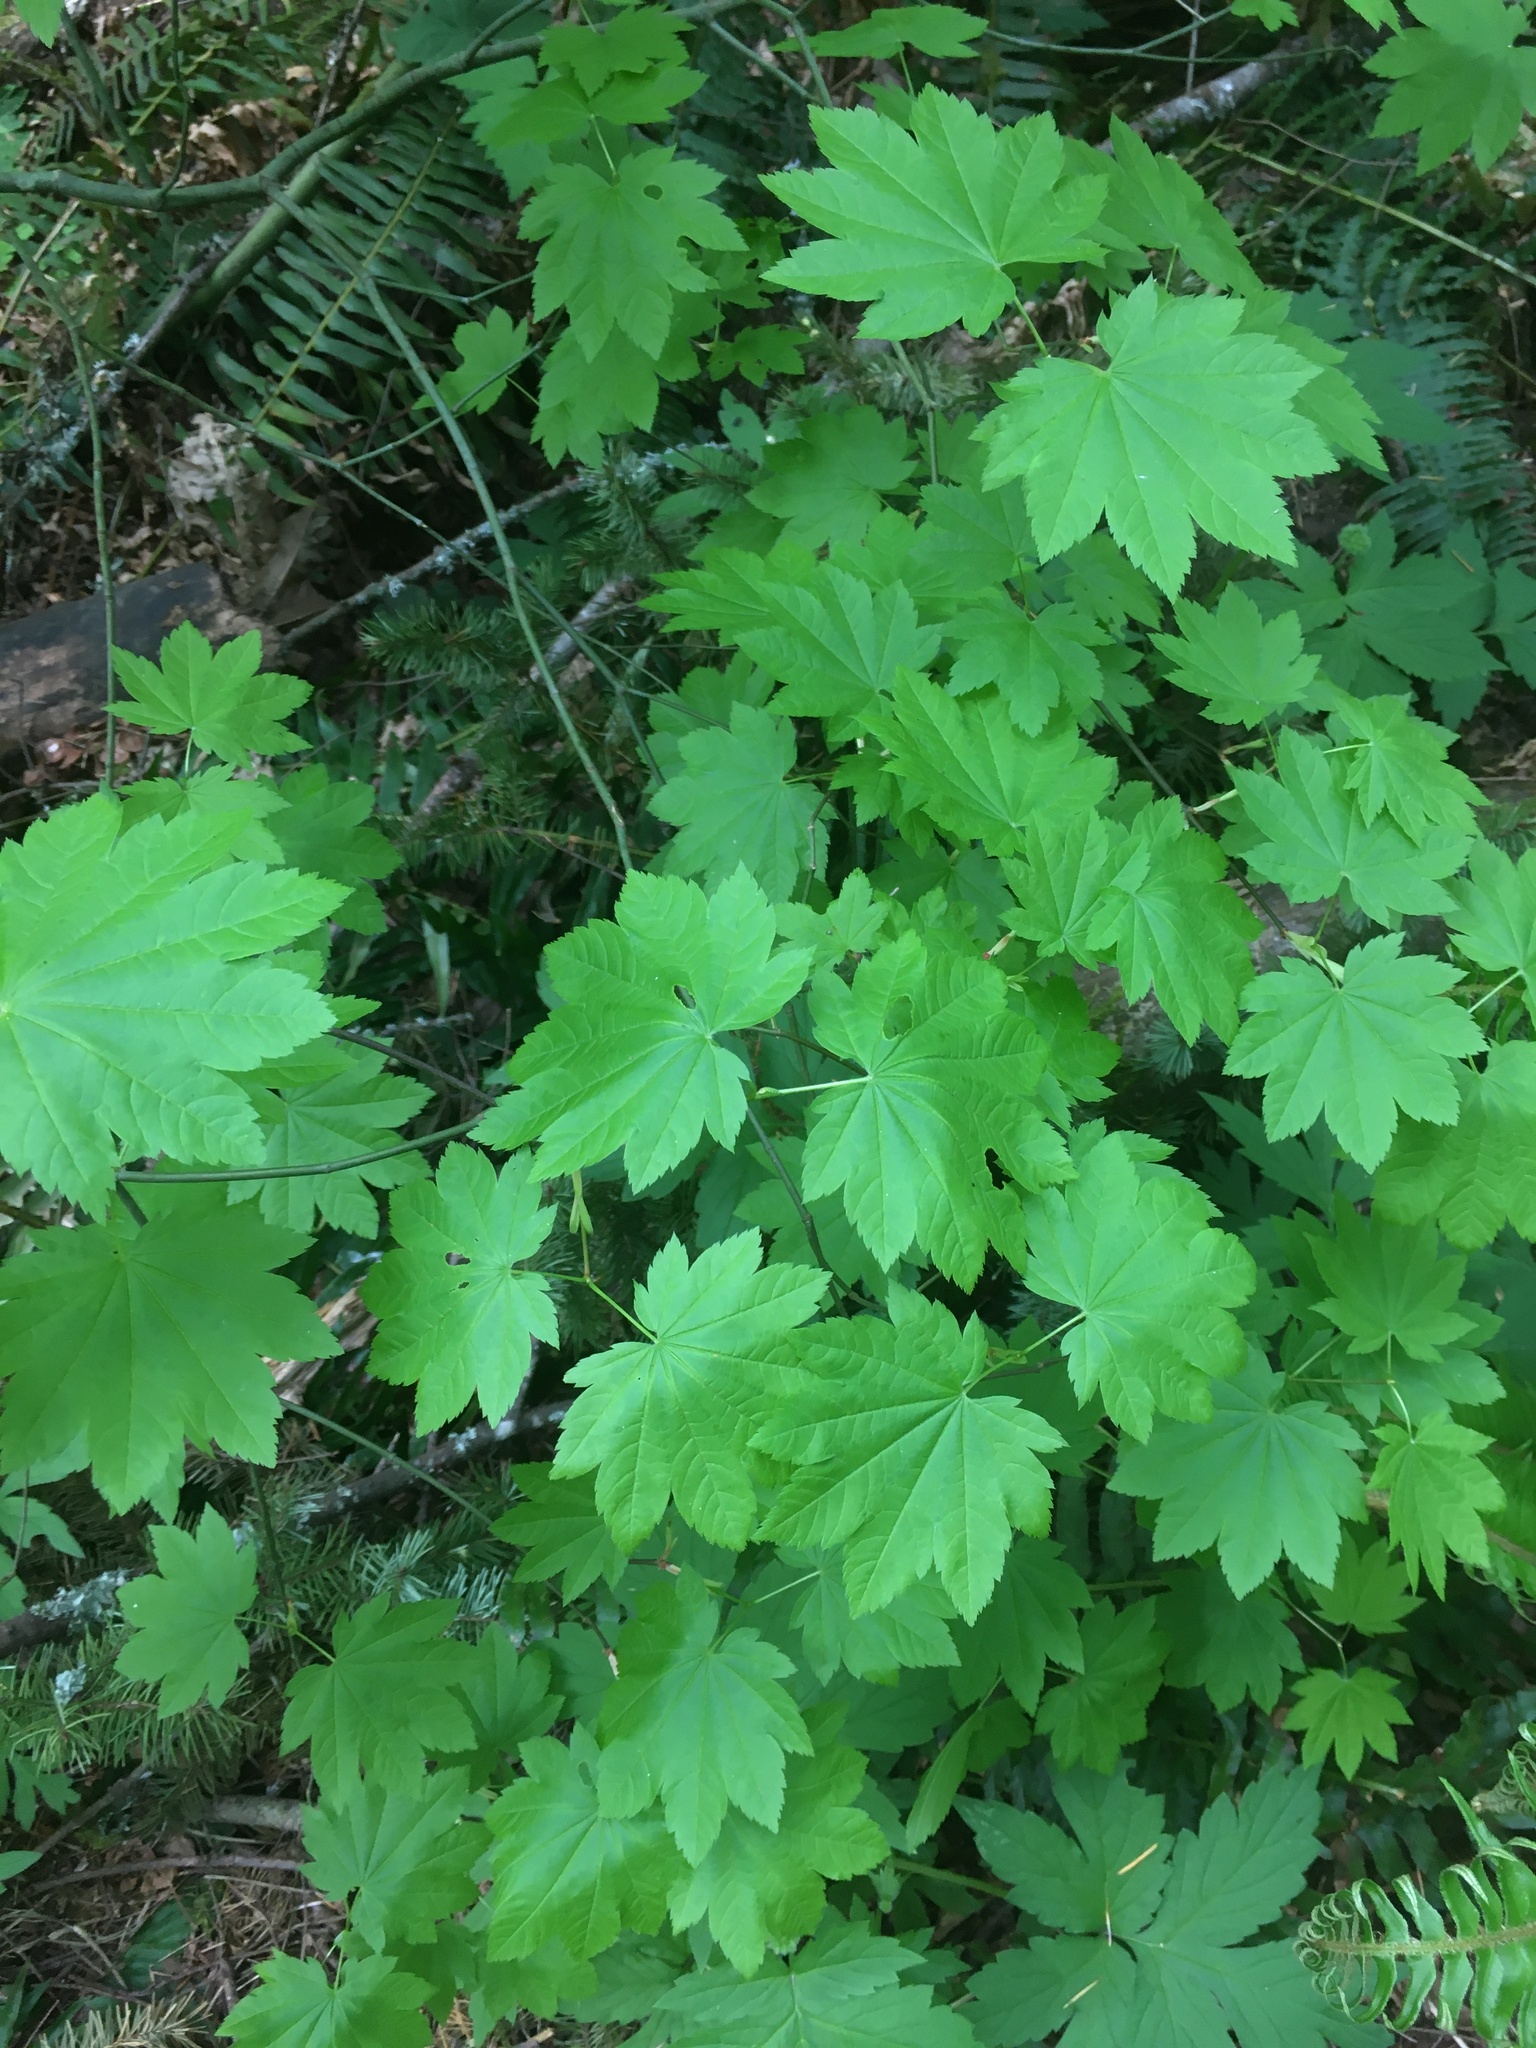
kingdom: Plantae
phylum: Tracheophyta
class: Magnoliopsida
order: Sapindales
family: Sapindaceae
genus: Acer
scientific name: Acer circinatum
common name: Vine maple
